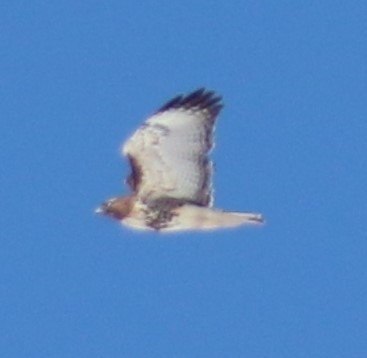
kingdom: Animalia
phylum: Chordata
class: Aves
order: Accipitriformes
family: Accipitridae
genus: Buteo
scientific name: Buteo jamaicensis
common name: Red-tailed hawk
